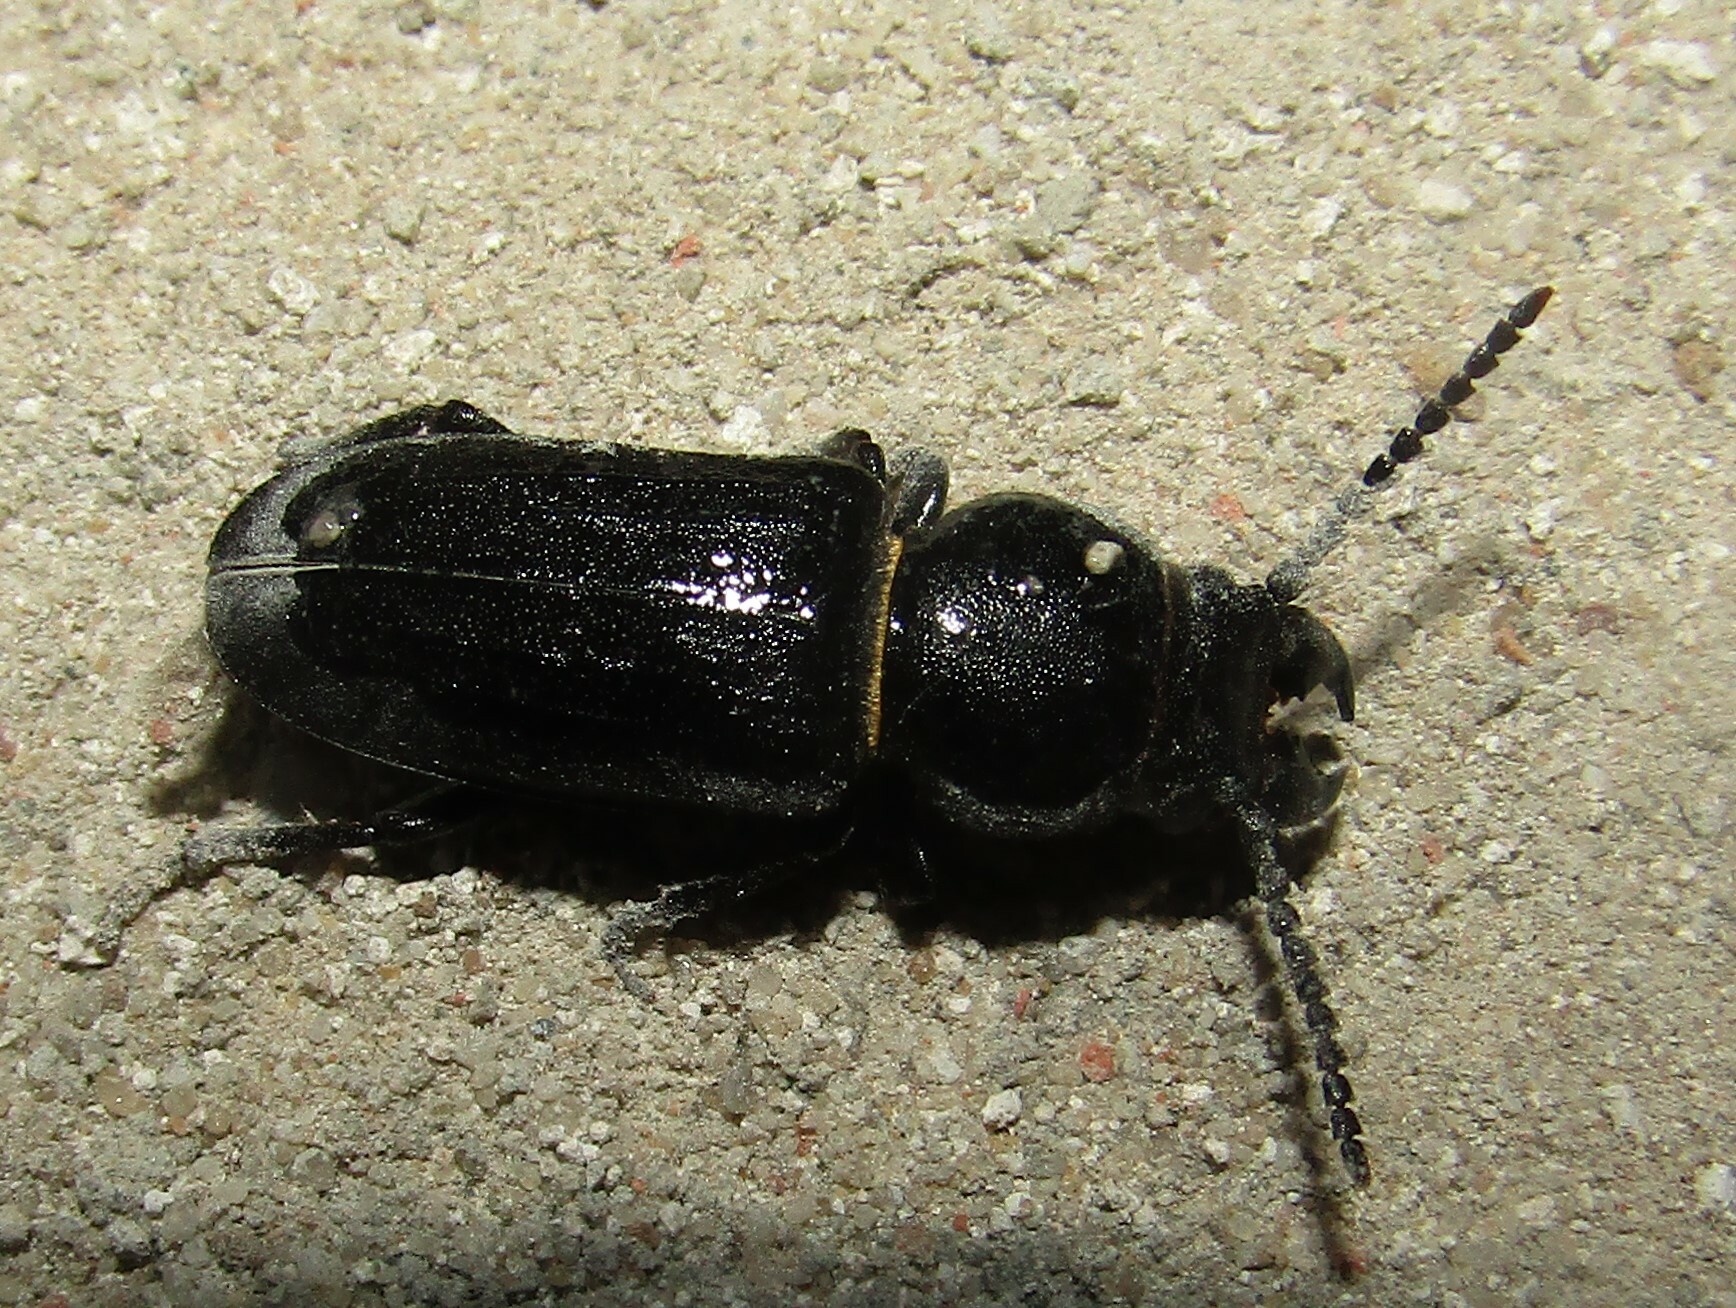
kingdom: Animalia
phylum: Arthropoda
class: Insecta
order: Coleoptera
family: Cerambycidae
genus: Spondylis
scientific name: Spondylis buprestoides
